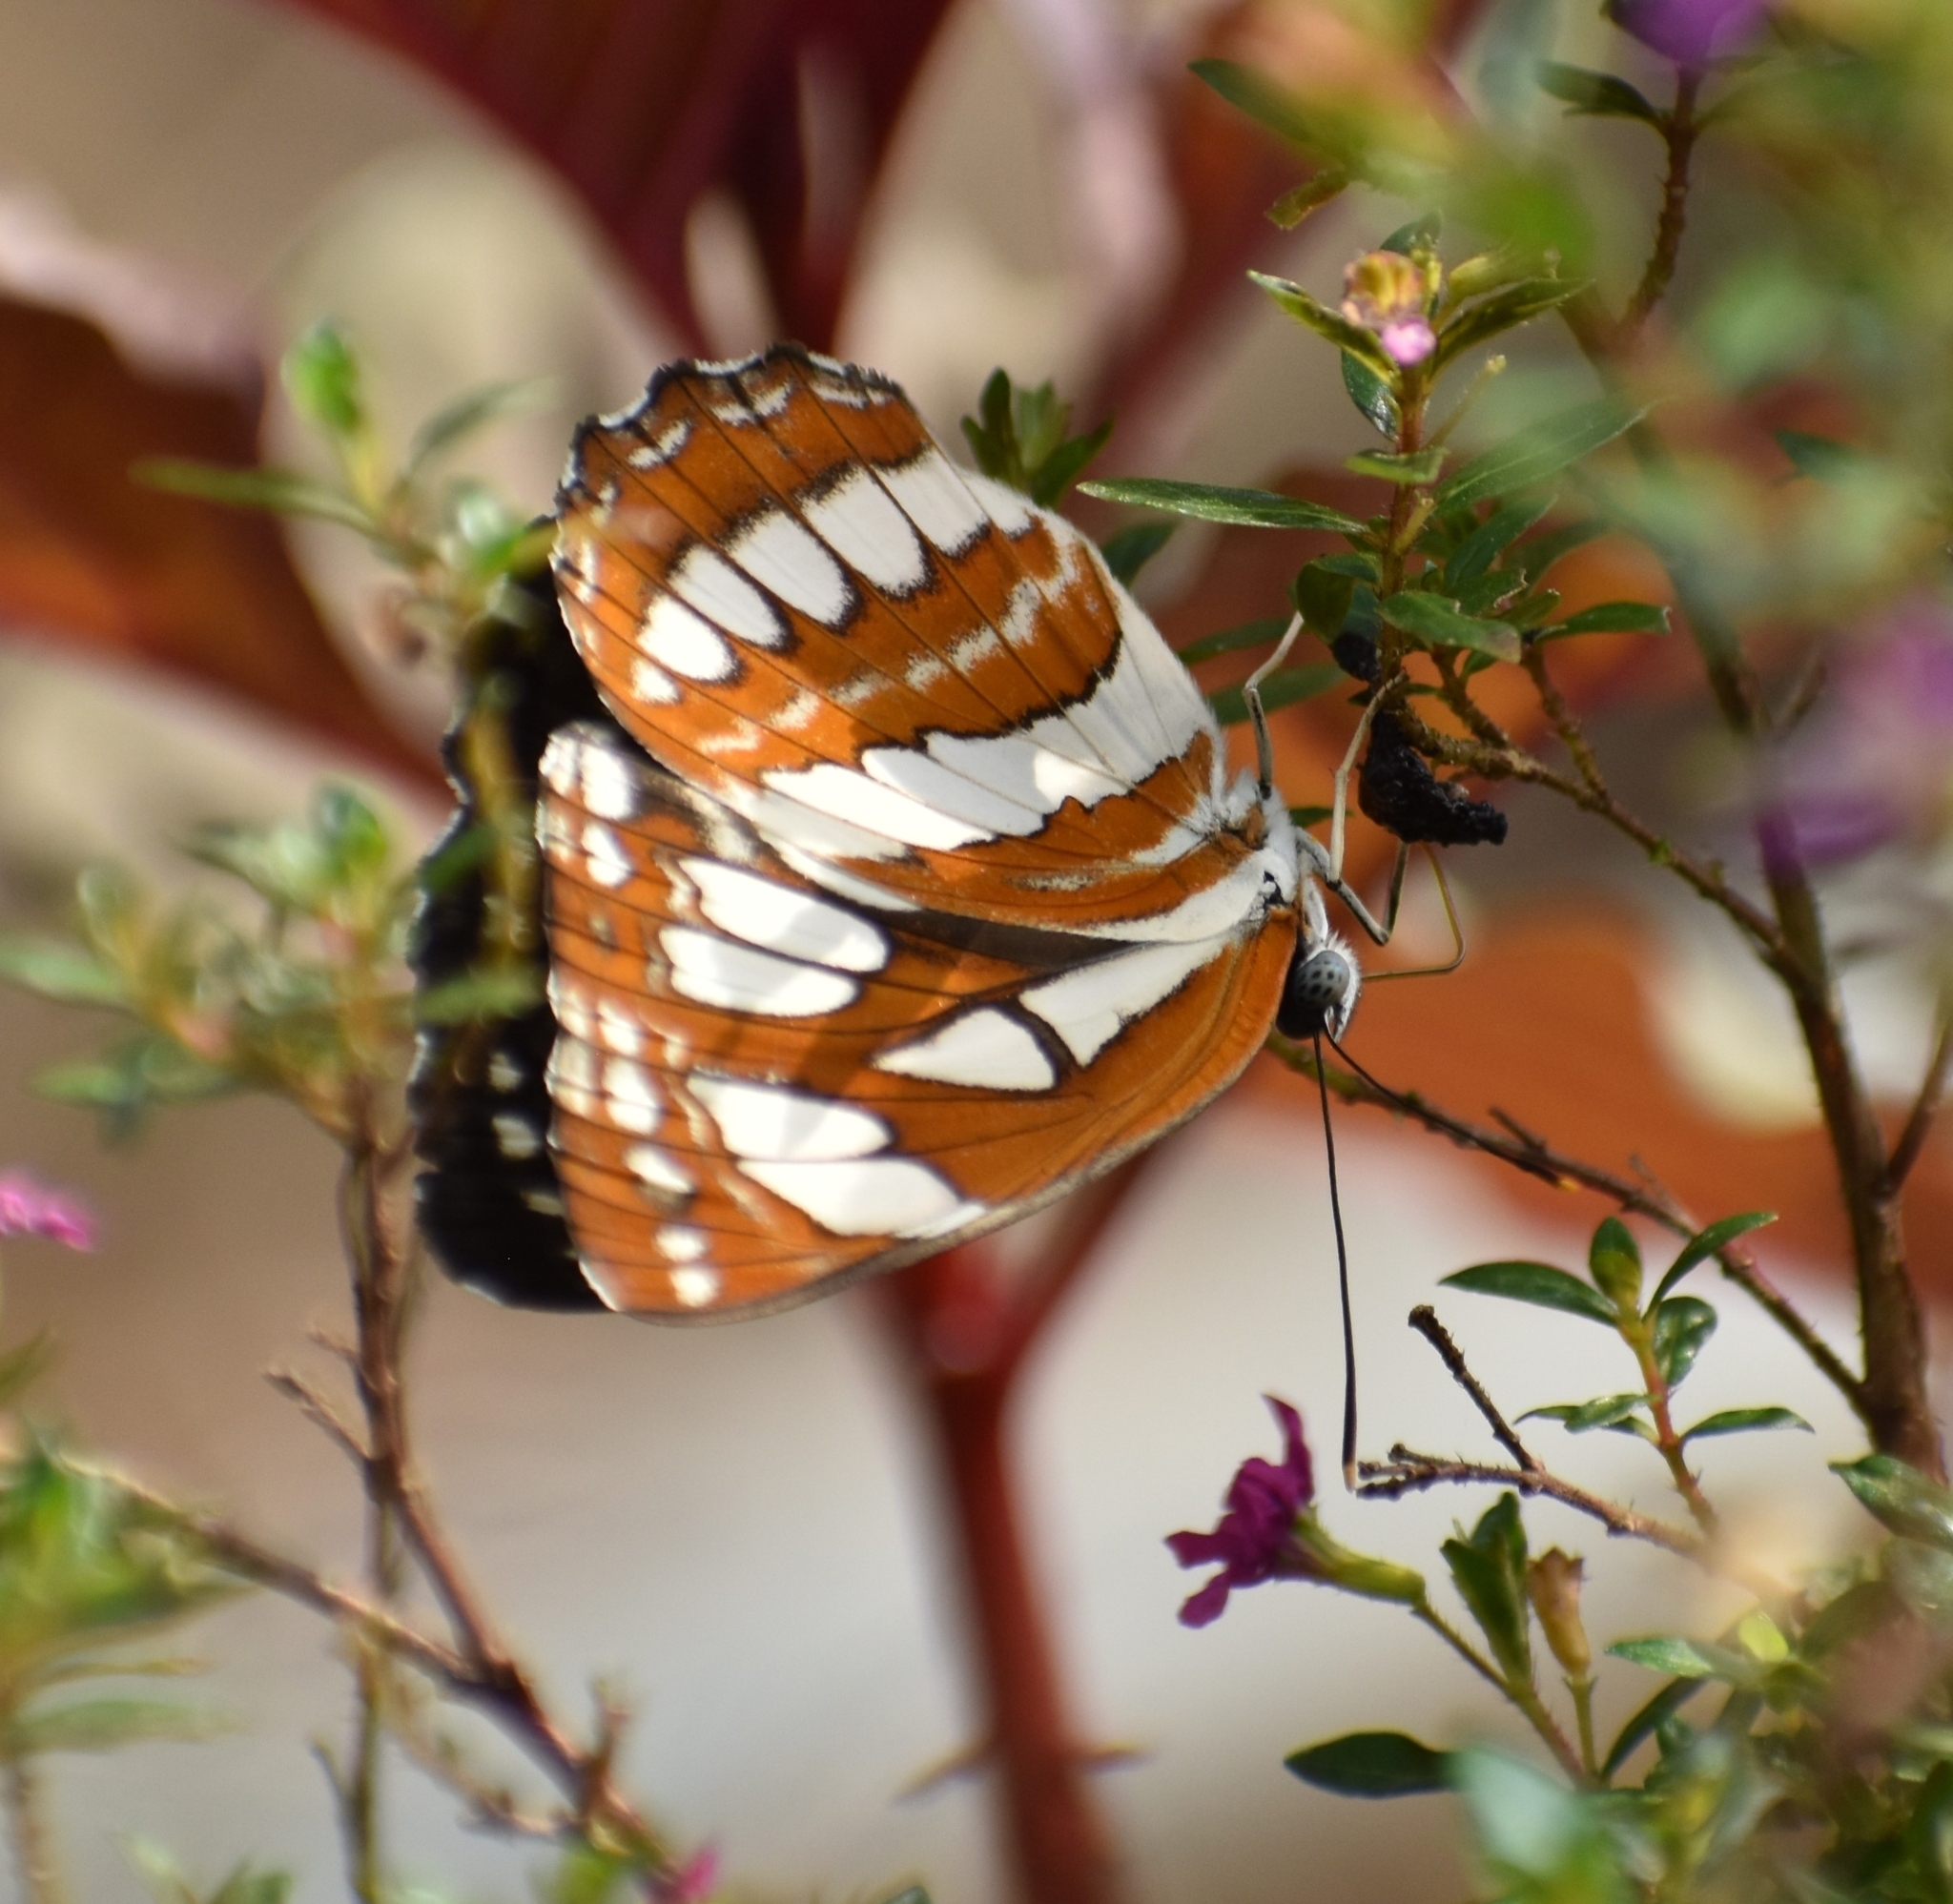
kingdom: Animalia
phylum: Arthropoda
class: Insecta
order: Lepidoptera
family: Nymphalidae
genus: Neptis
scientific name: Neptis hylas
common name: Common sailer
